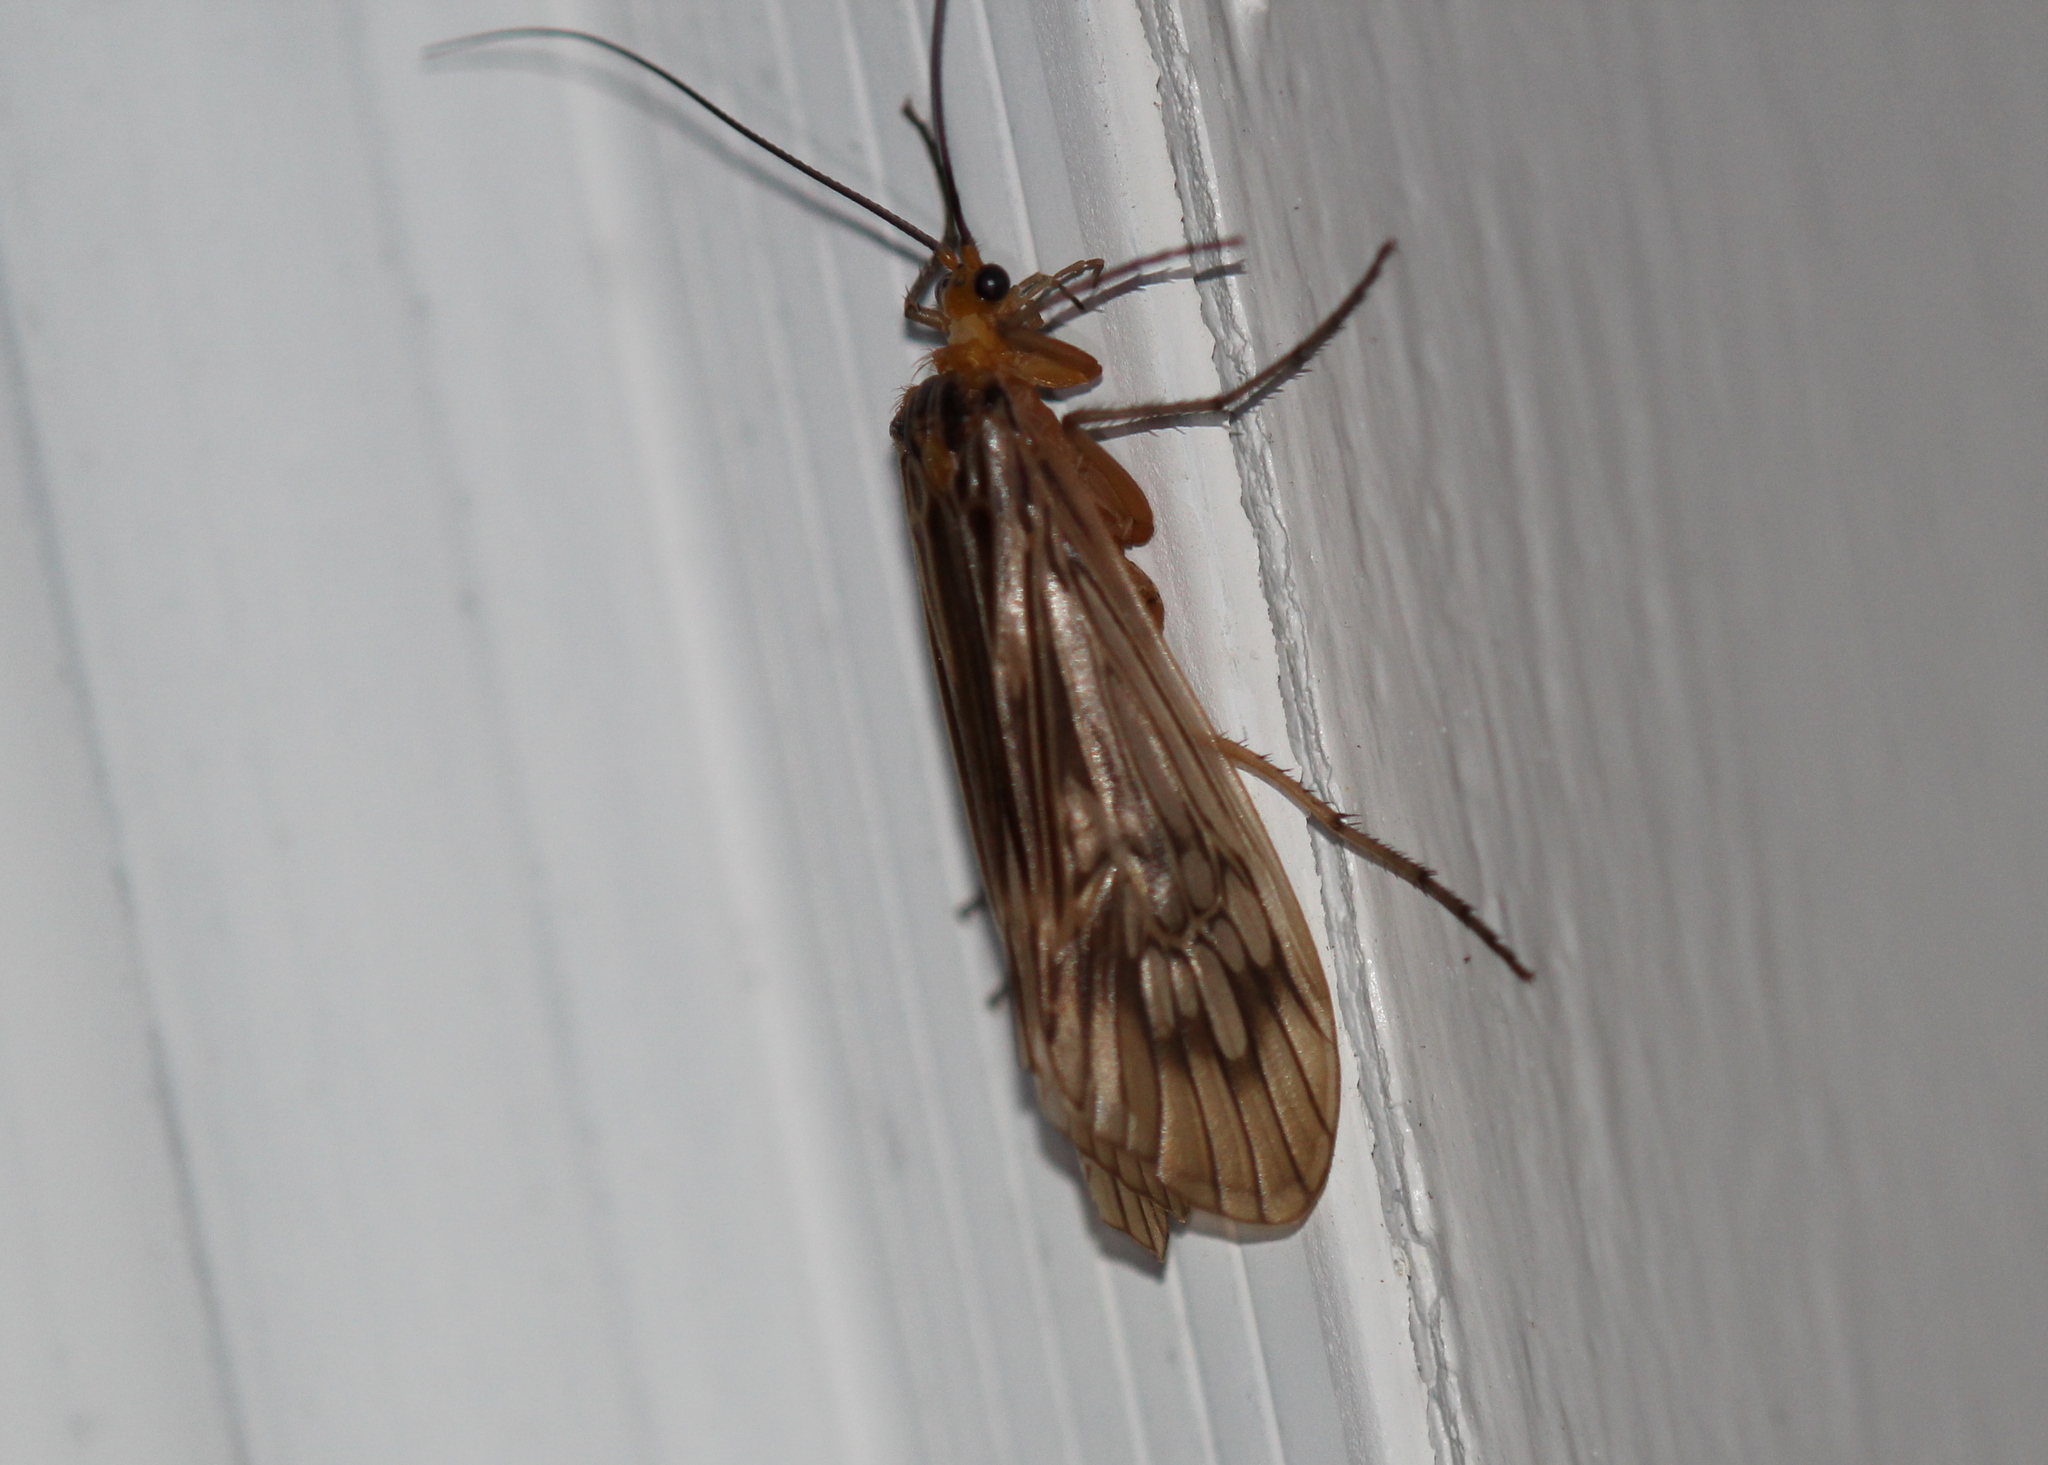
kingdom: Animalia
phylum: Arthropoda
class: Insecta
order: Trichoptera
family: Limnephilidae
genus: Hydatophylax
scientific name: Hydatophylax argus
